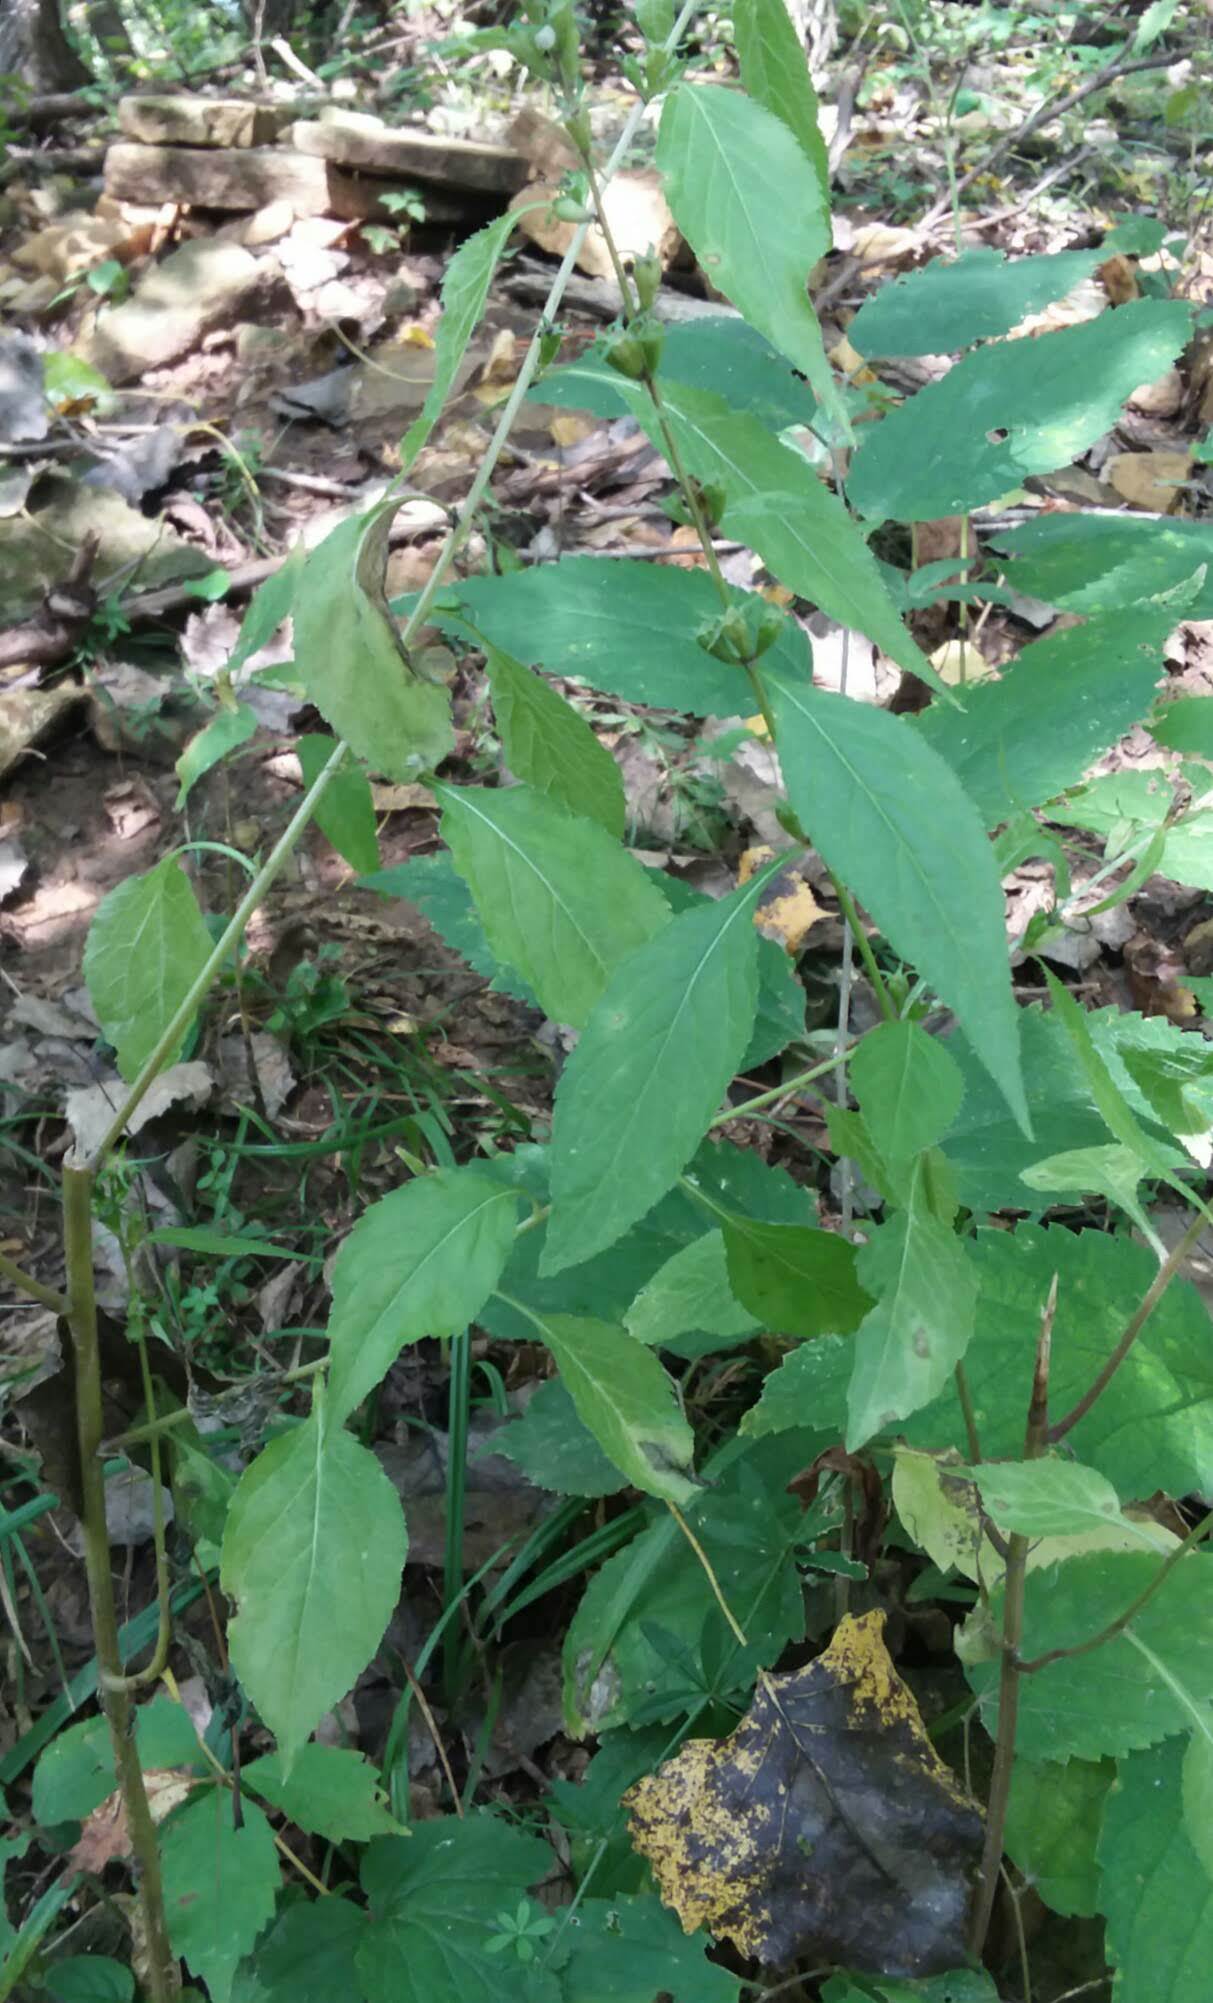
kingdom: Plantae
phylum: Tracheophyta
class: Magnoliopsida
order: Asterales
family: Campanulaceae
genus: Campanulastrum
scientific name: Campanulastrum americanum
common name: American bellflower
